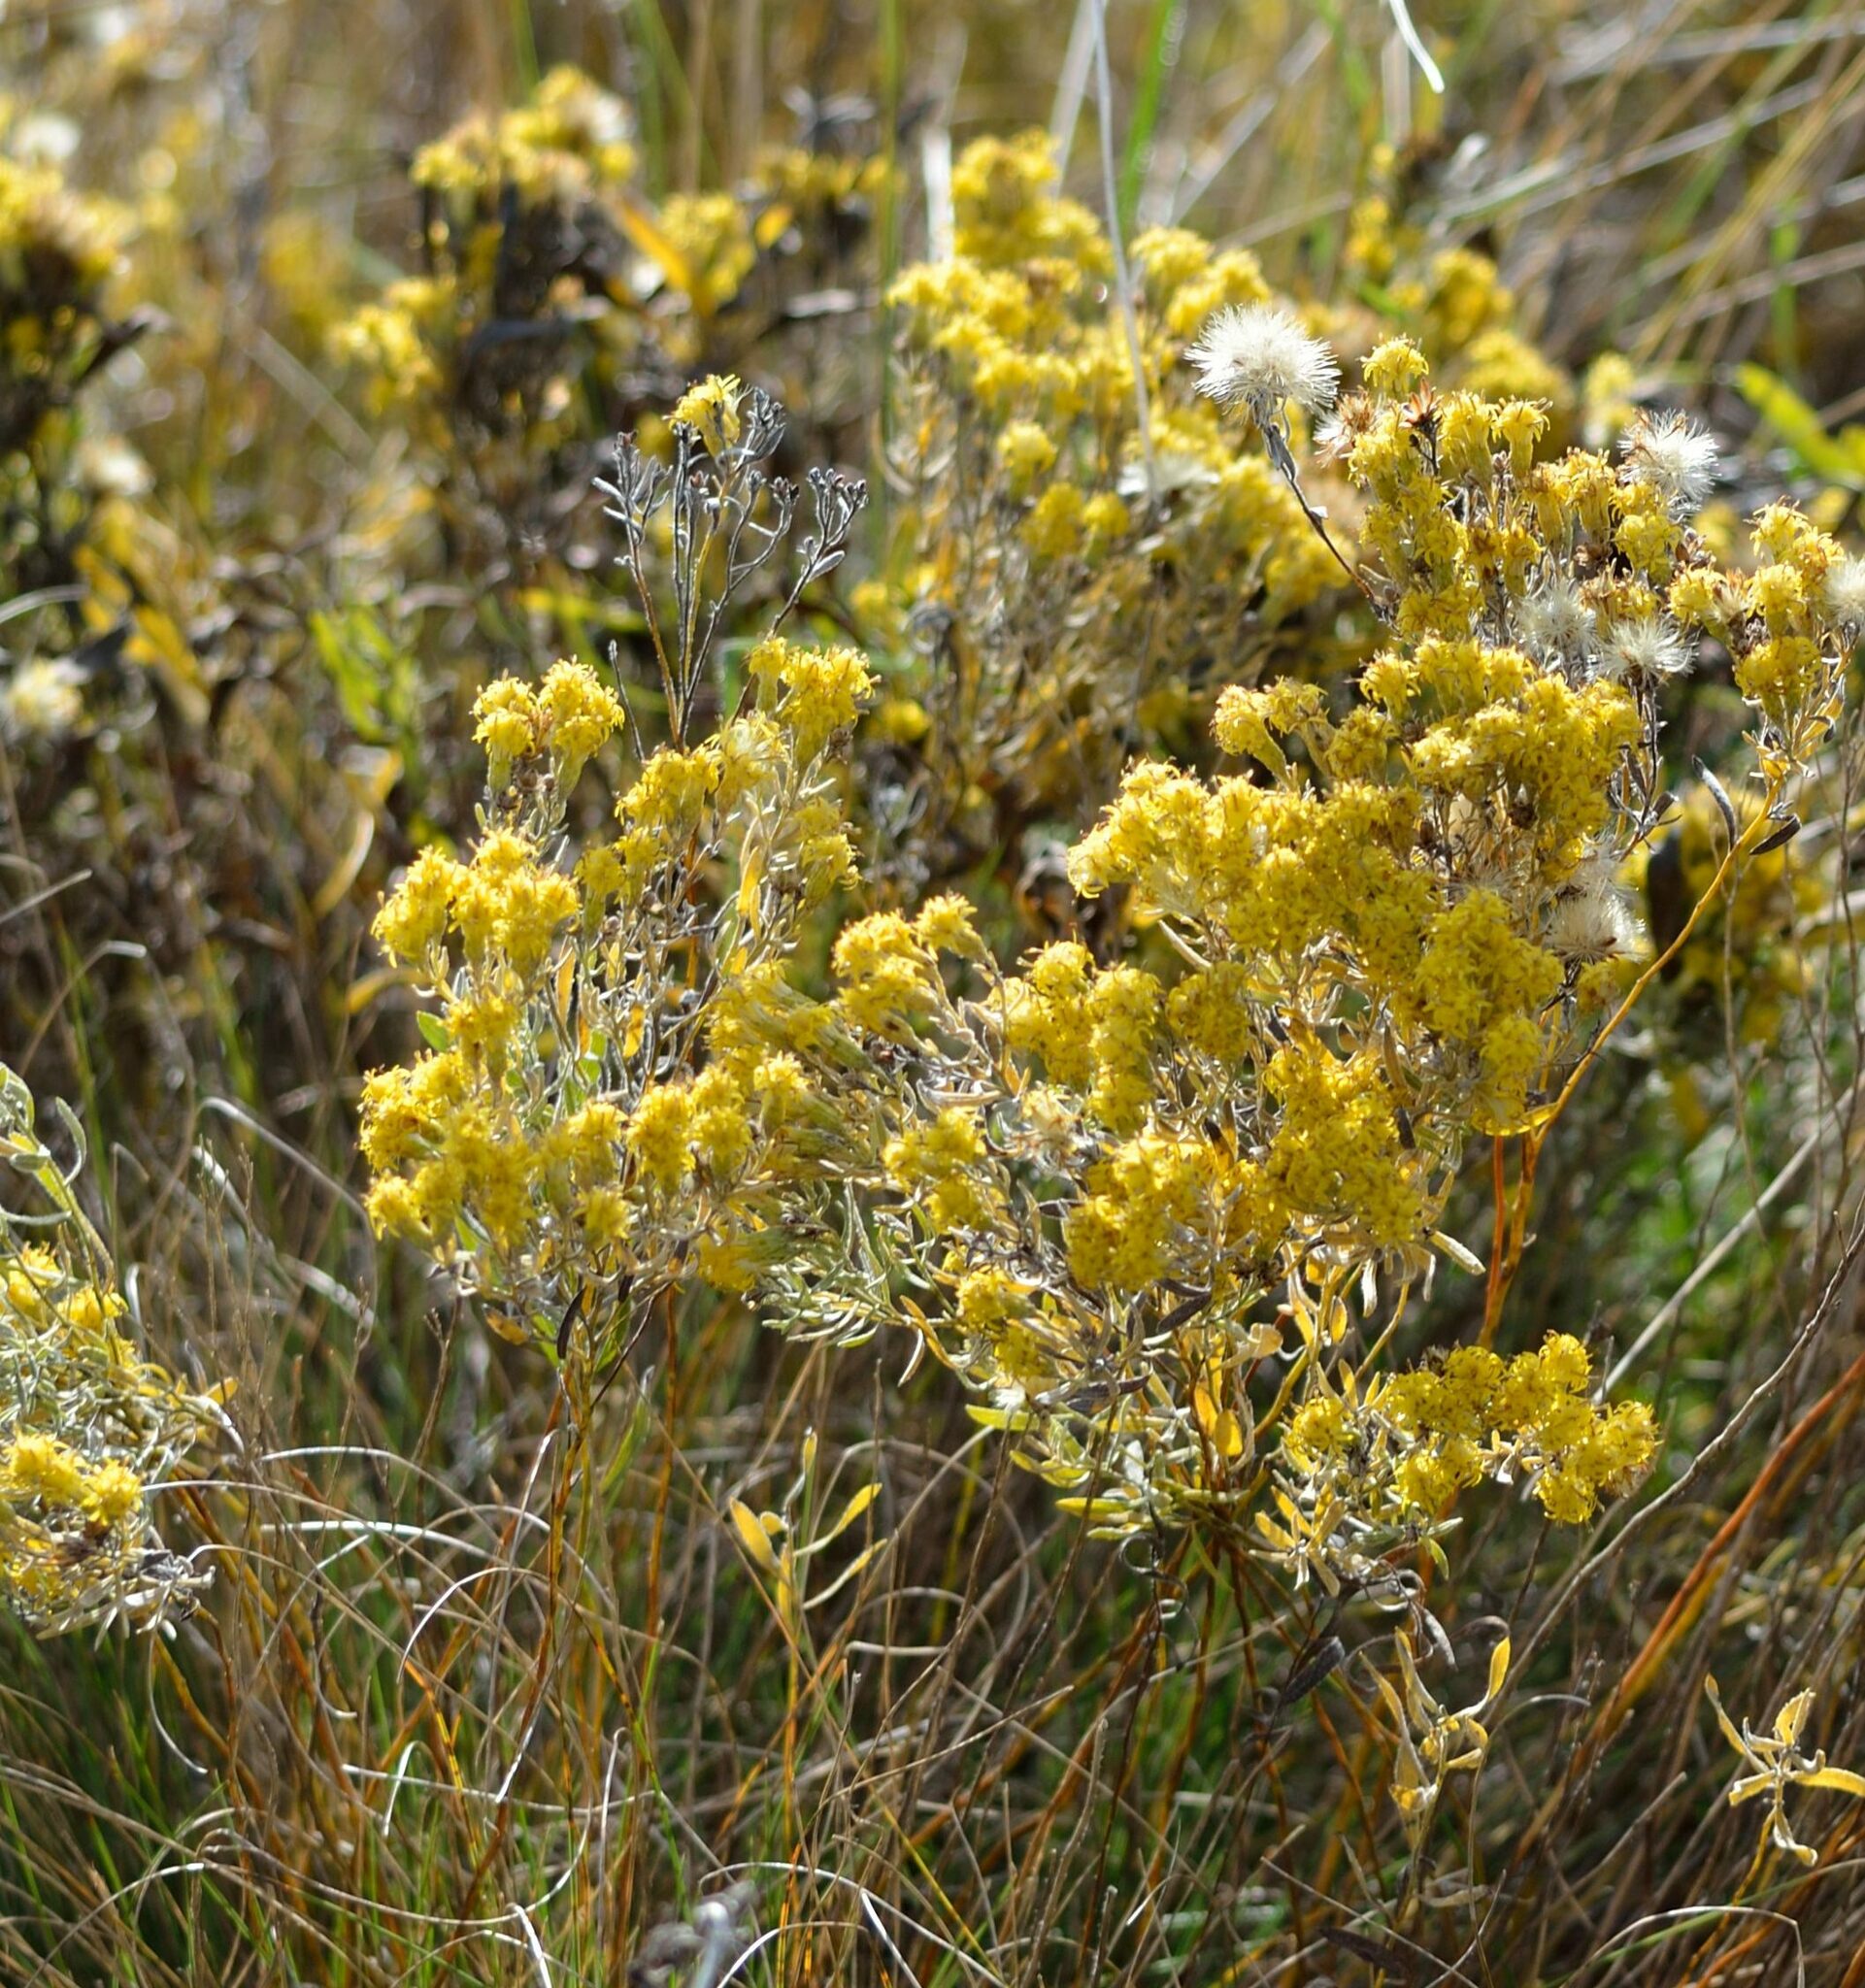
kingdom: Plantae
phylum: Tracheophyta
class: Magnoliopsida
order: Asterales
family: Asteraceae
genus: Galatella
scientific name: Galatella villosa
